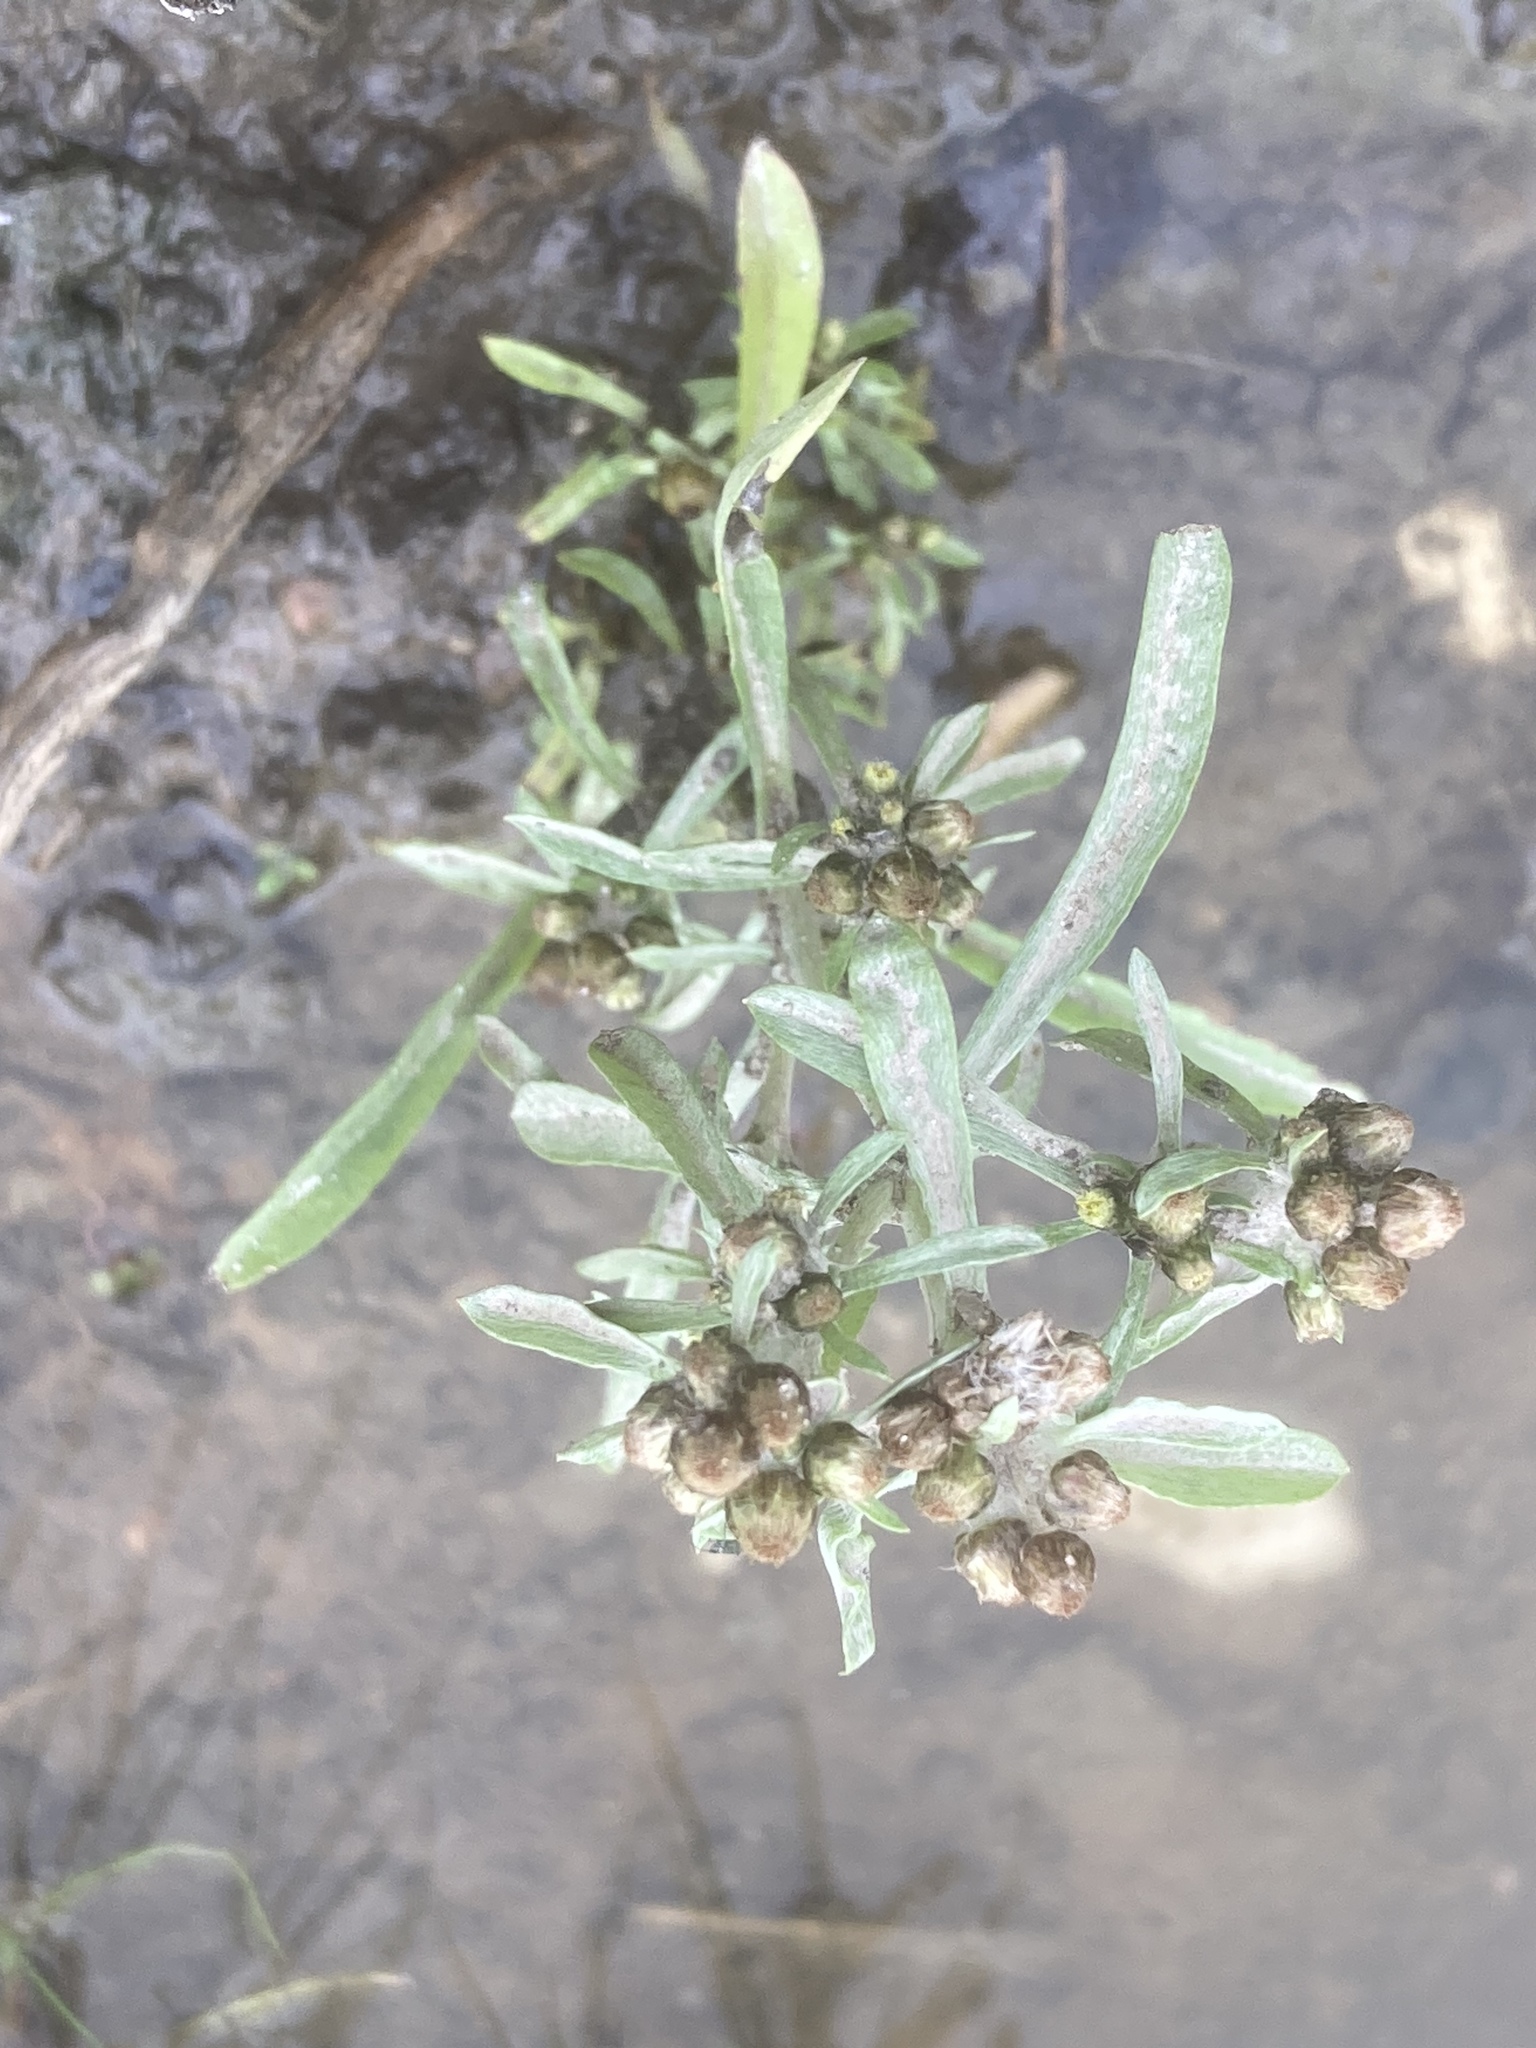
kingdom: Plantae
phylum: Tracheophyta
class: Magnoliopsida
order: Asterales
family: Asteraceae
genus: Gnaphalium
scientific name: Gnaphalium uliginosum
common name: Marsh cudweed
